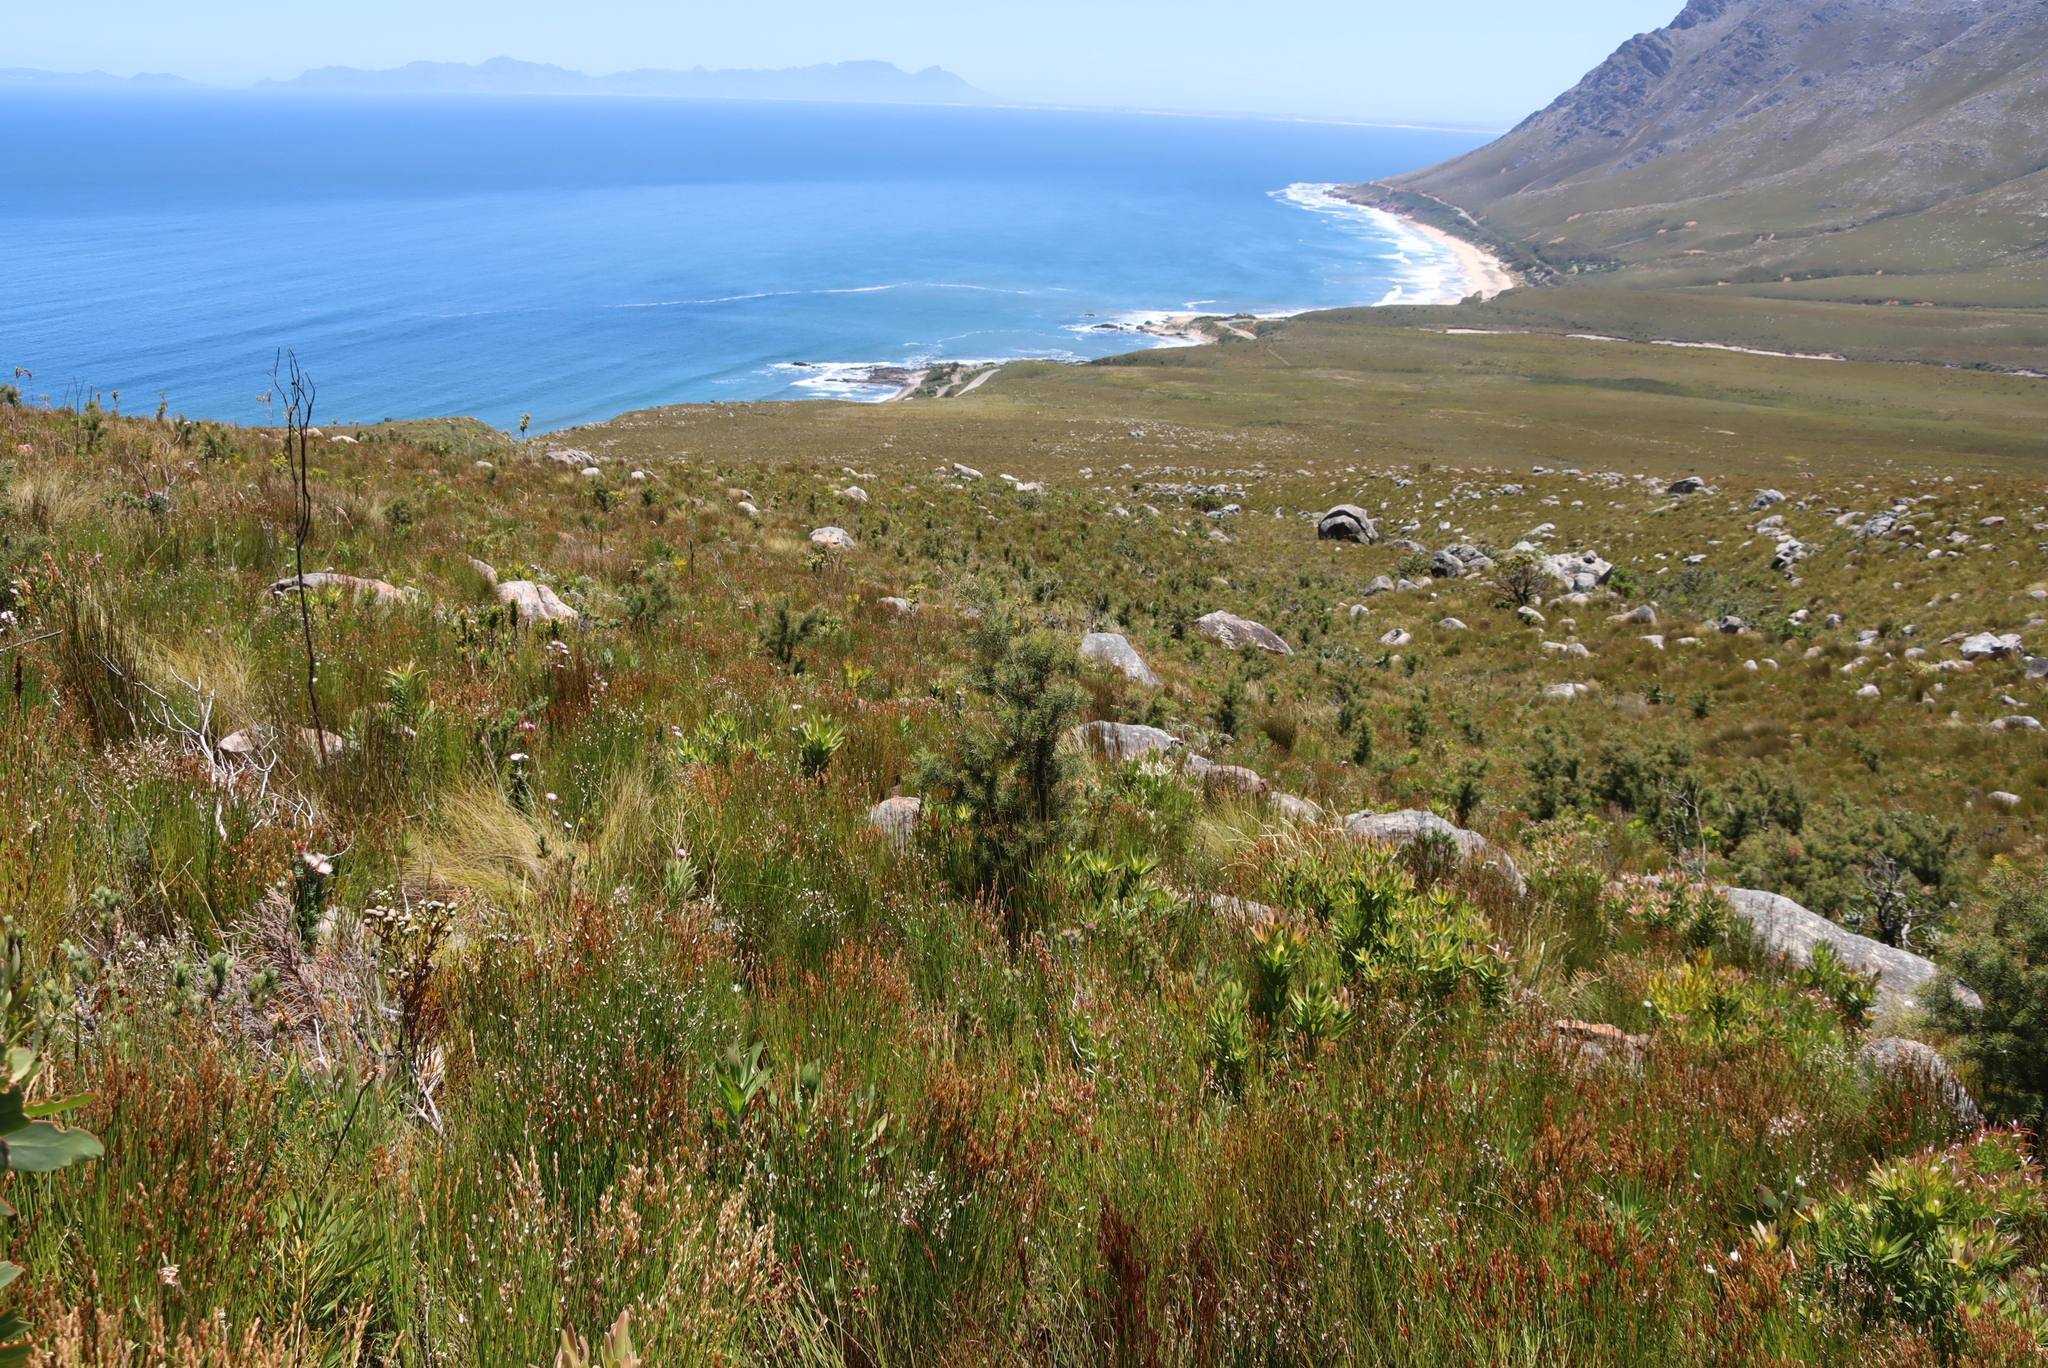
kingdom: Plantae
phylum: Tracheophyta
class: Magnoliopsida
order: Proteales
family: Proteaceae
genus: Hakea
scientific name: Hakea sericea
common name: Needle bush
